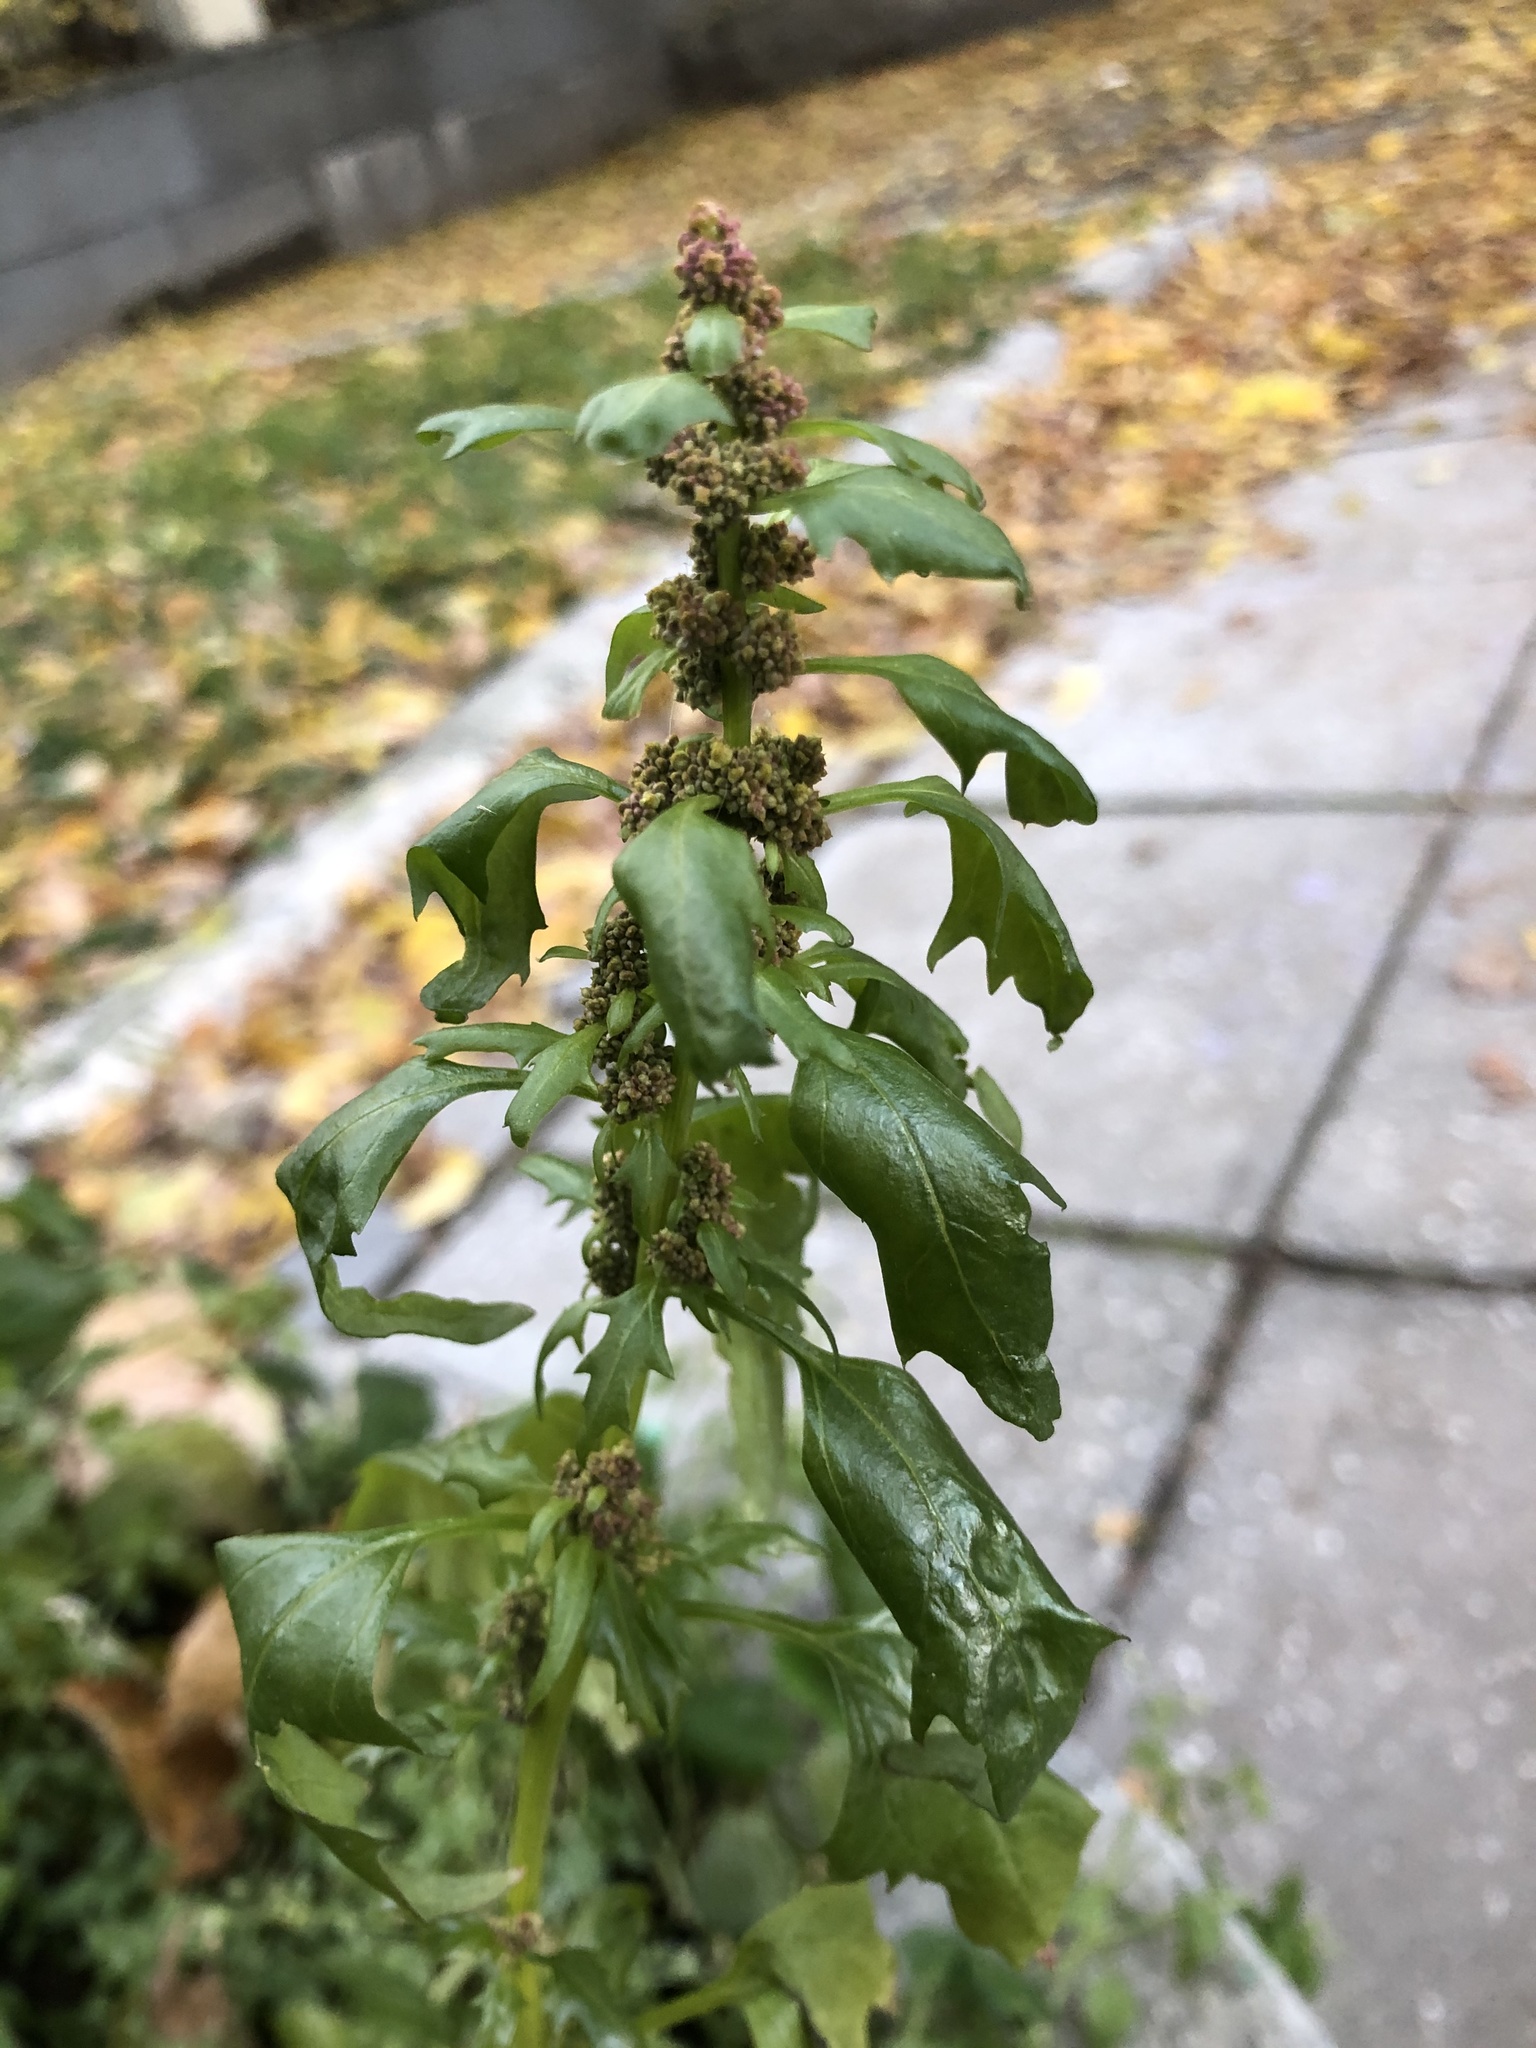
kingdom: Plantae
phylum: Tracheophyta
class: Magnoliopsida
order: Caryophyllales
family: Amaranthaceae
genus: Oxybasis
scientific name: Oxybasis rubra
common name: Red goosefoot
